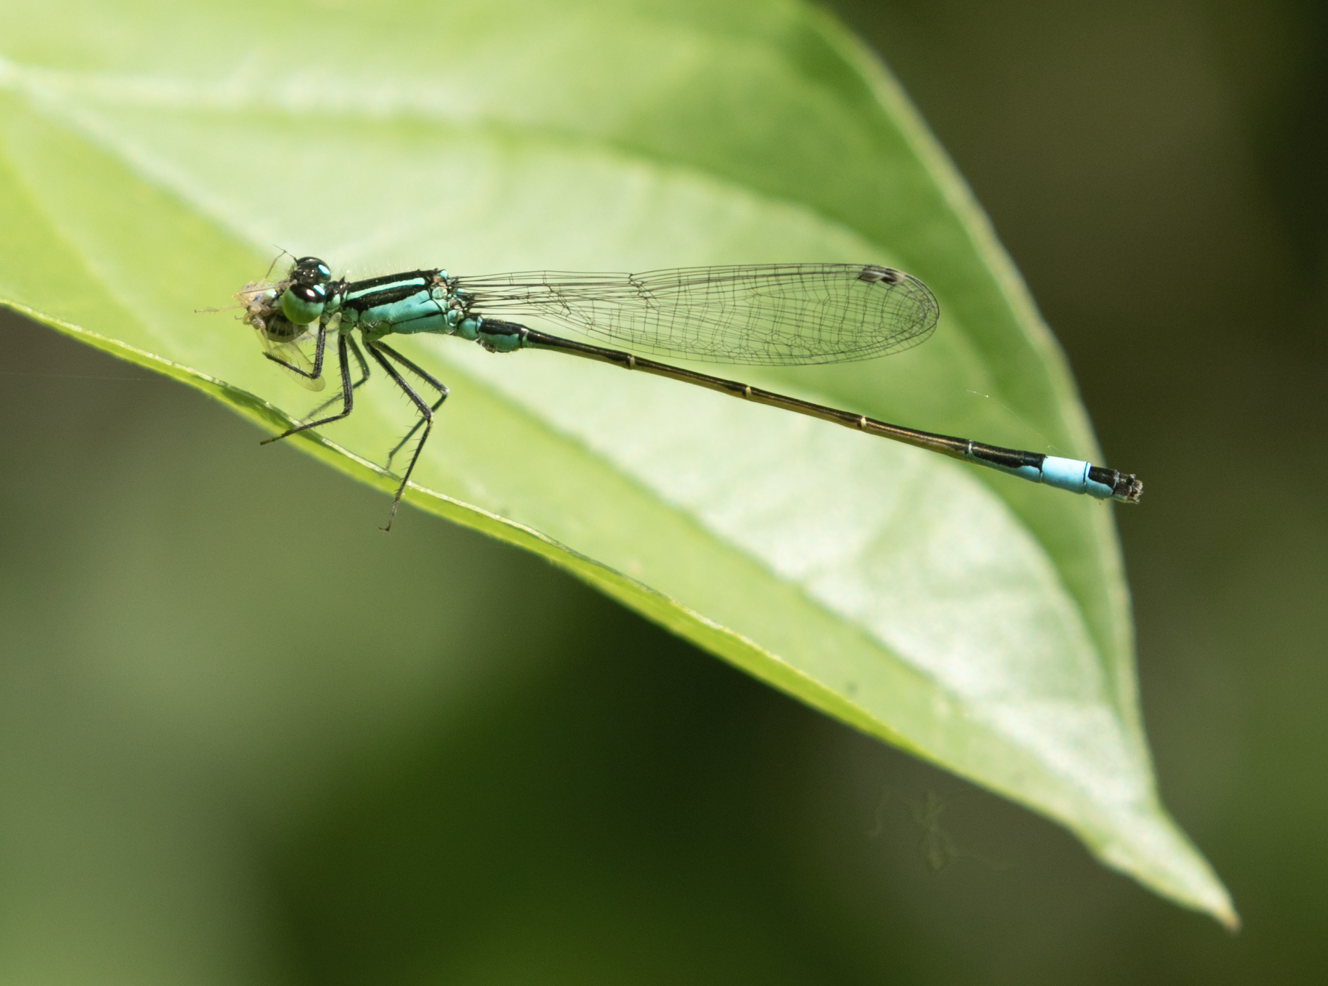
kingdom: Animalia
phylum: Arthropoda
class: Insecta
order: Odonata
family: Coenagrionidae
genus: Ischnura
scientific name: Ischnura elegans
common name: Blue-tailed damselfly
